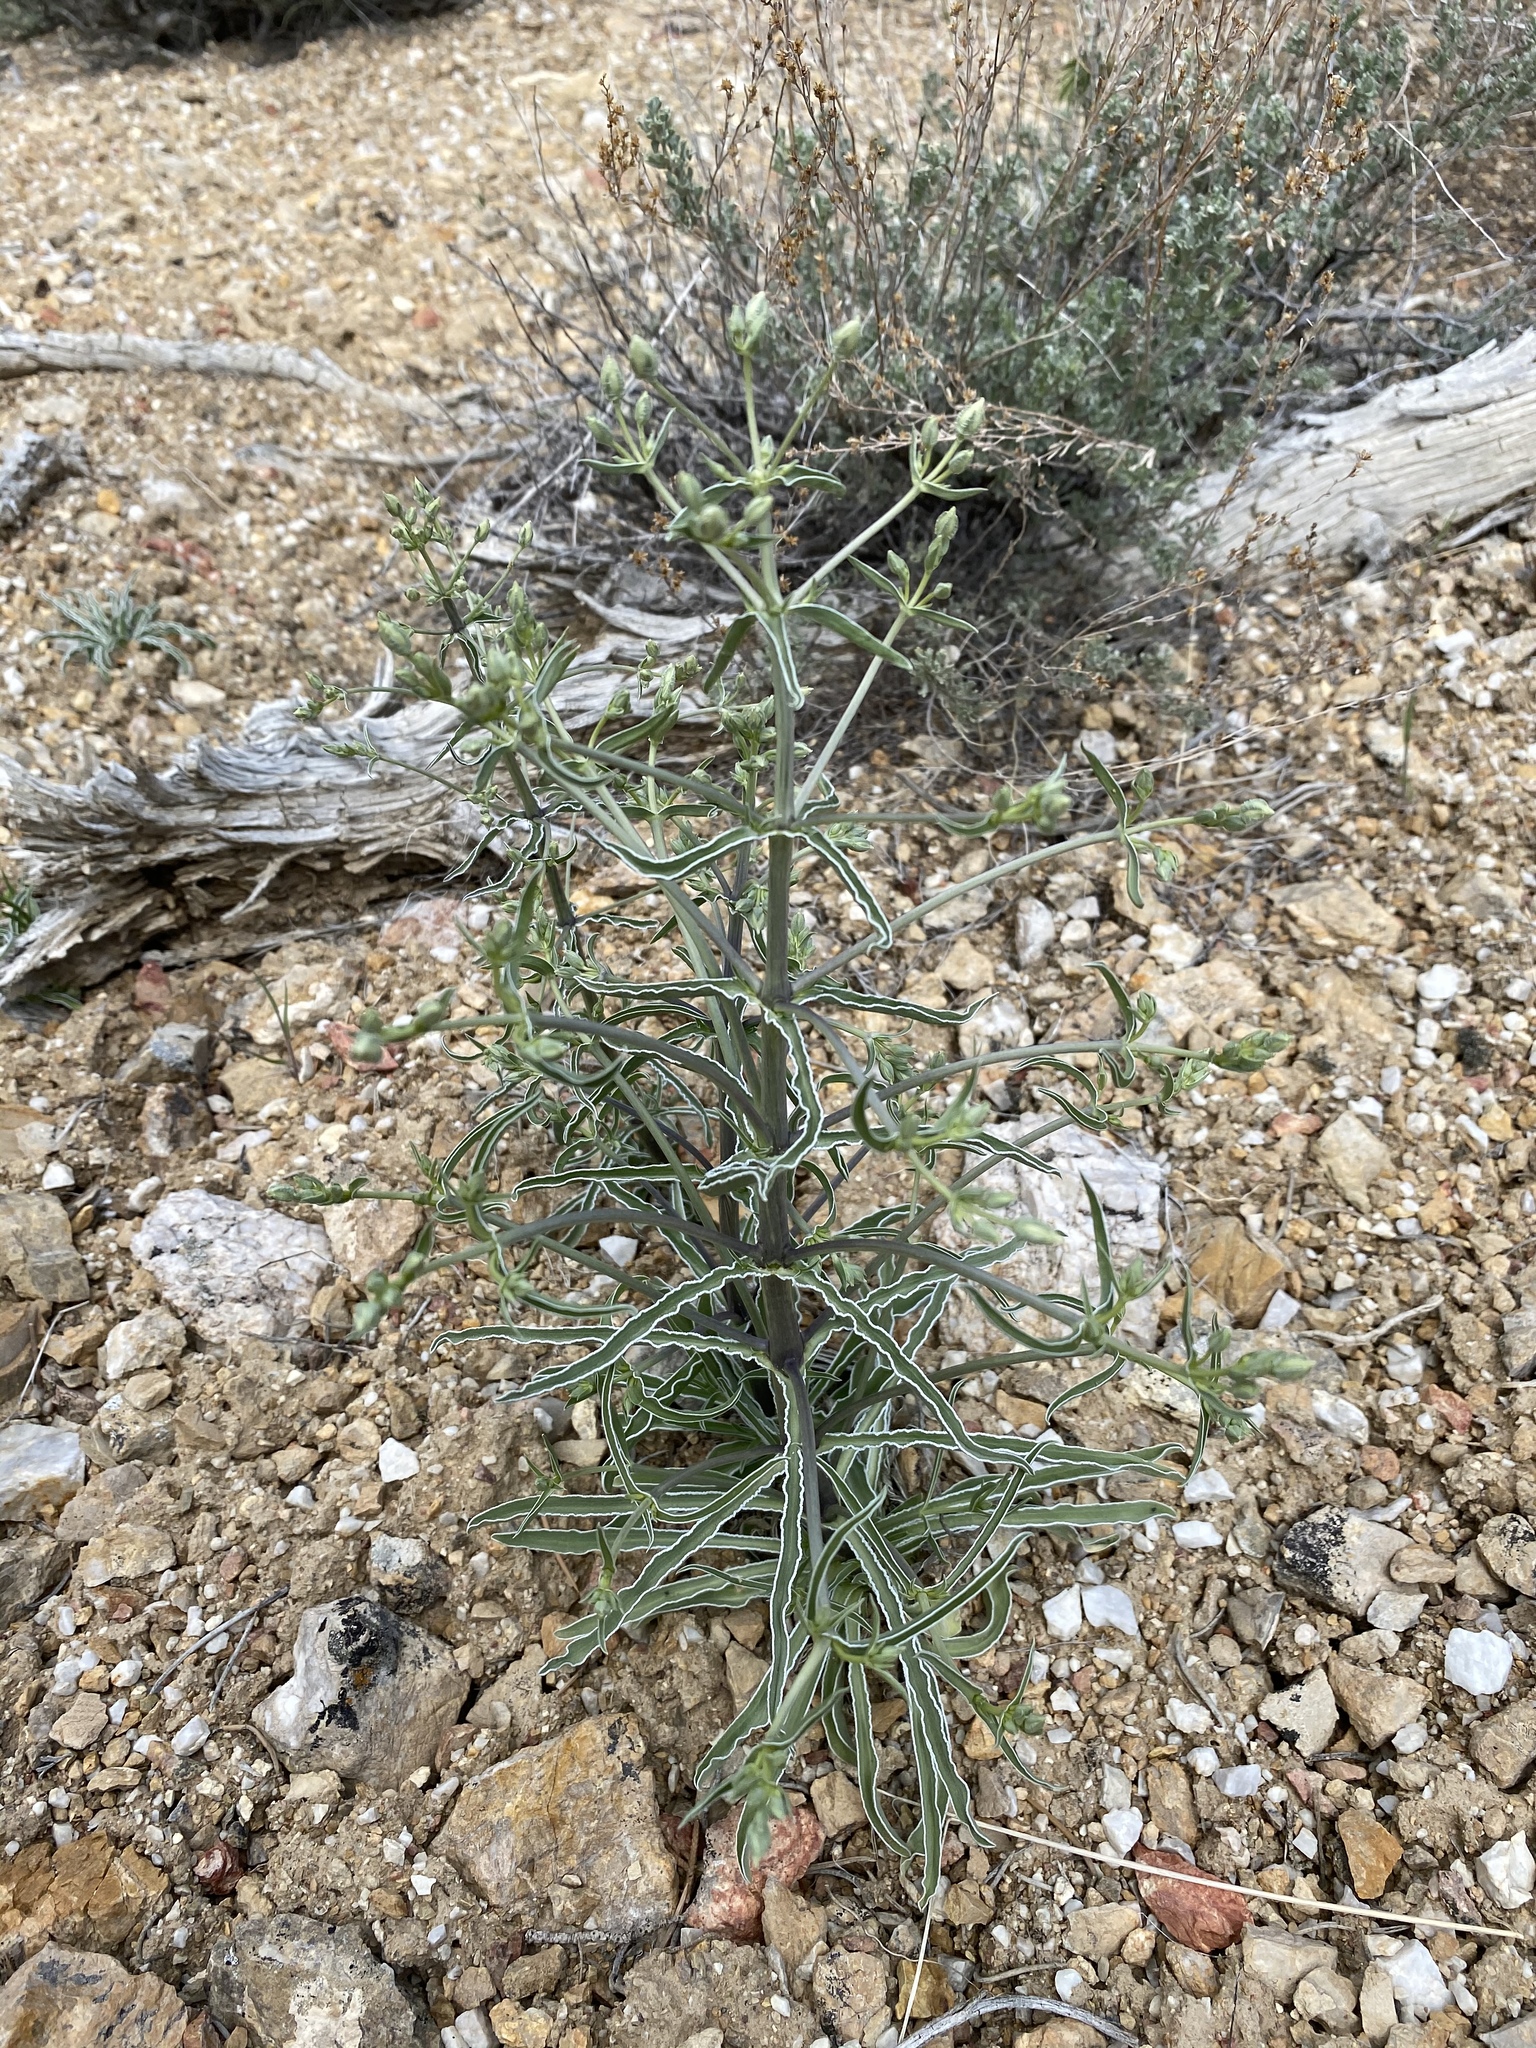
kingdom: Plantae
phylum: Tracheophyta
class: Magnoliopsida
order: Gentianales
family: Gentianaceae
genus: Frasera
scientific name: Frasera albomarginata
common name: Desert frasera
